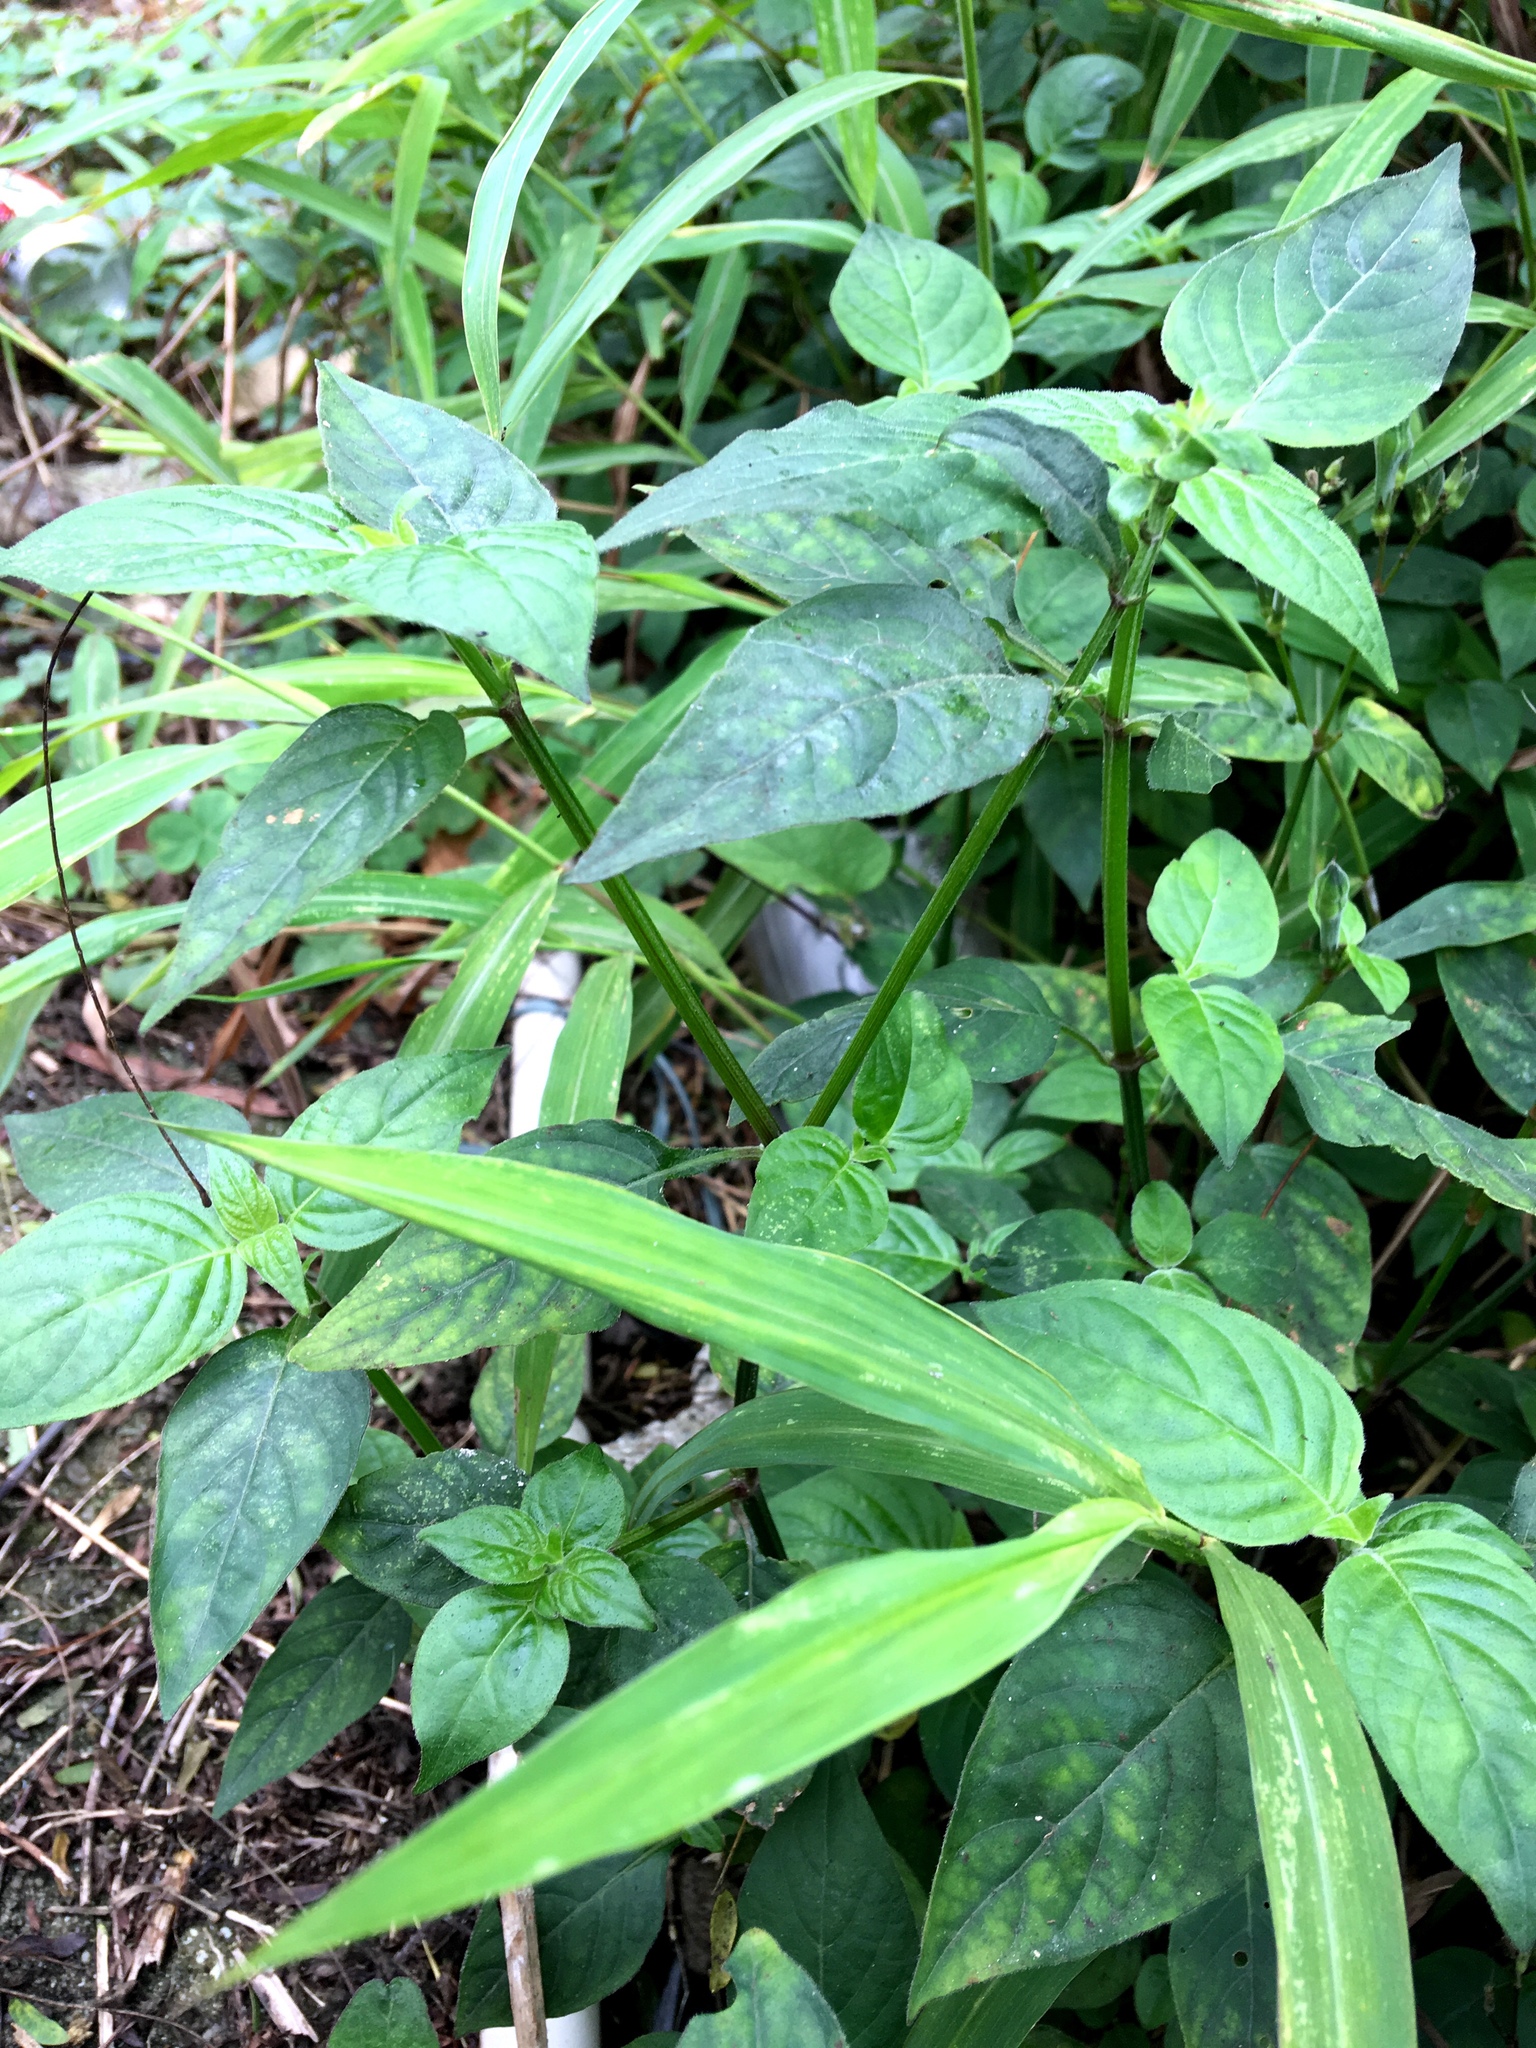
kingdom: Plantae
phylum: Tracheophyta
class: Magnoliopsida
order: Lamiales
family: Acanthaceae
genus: Asystasia
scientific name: Asystasia intrusa
